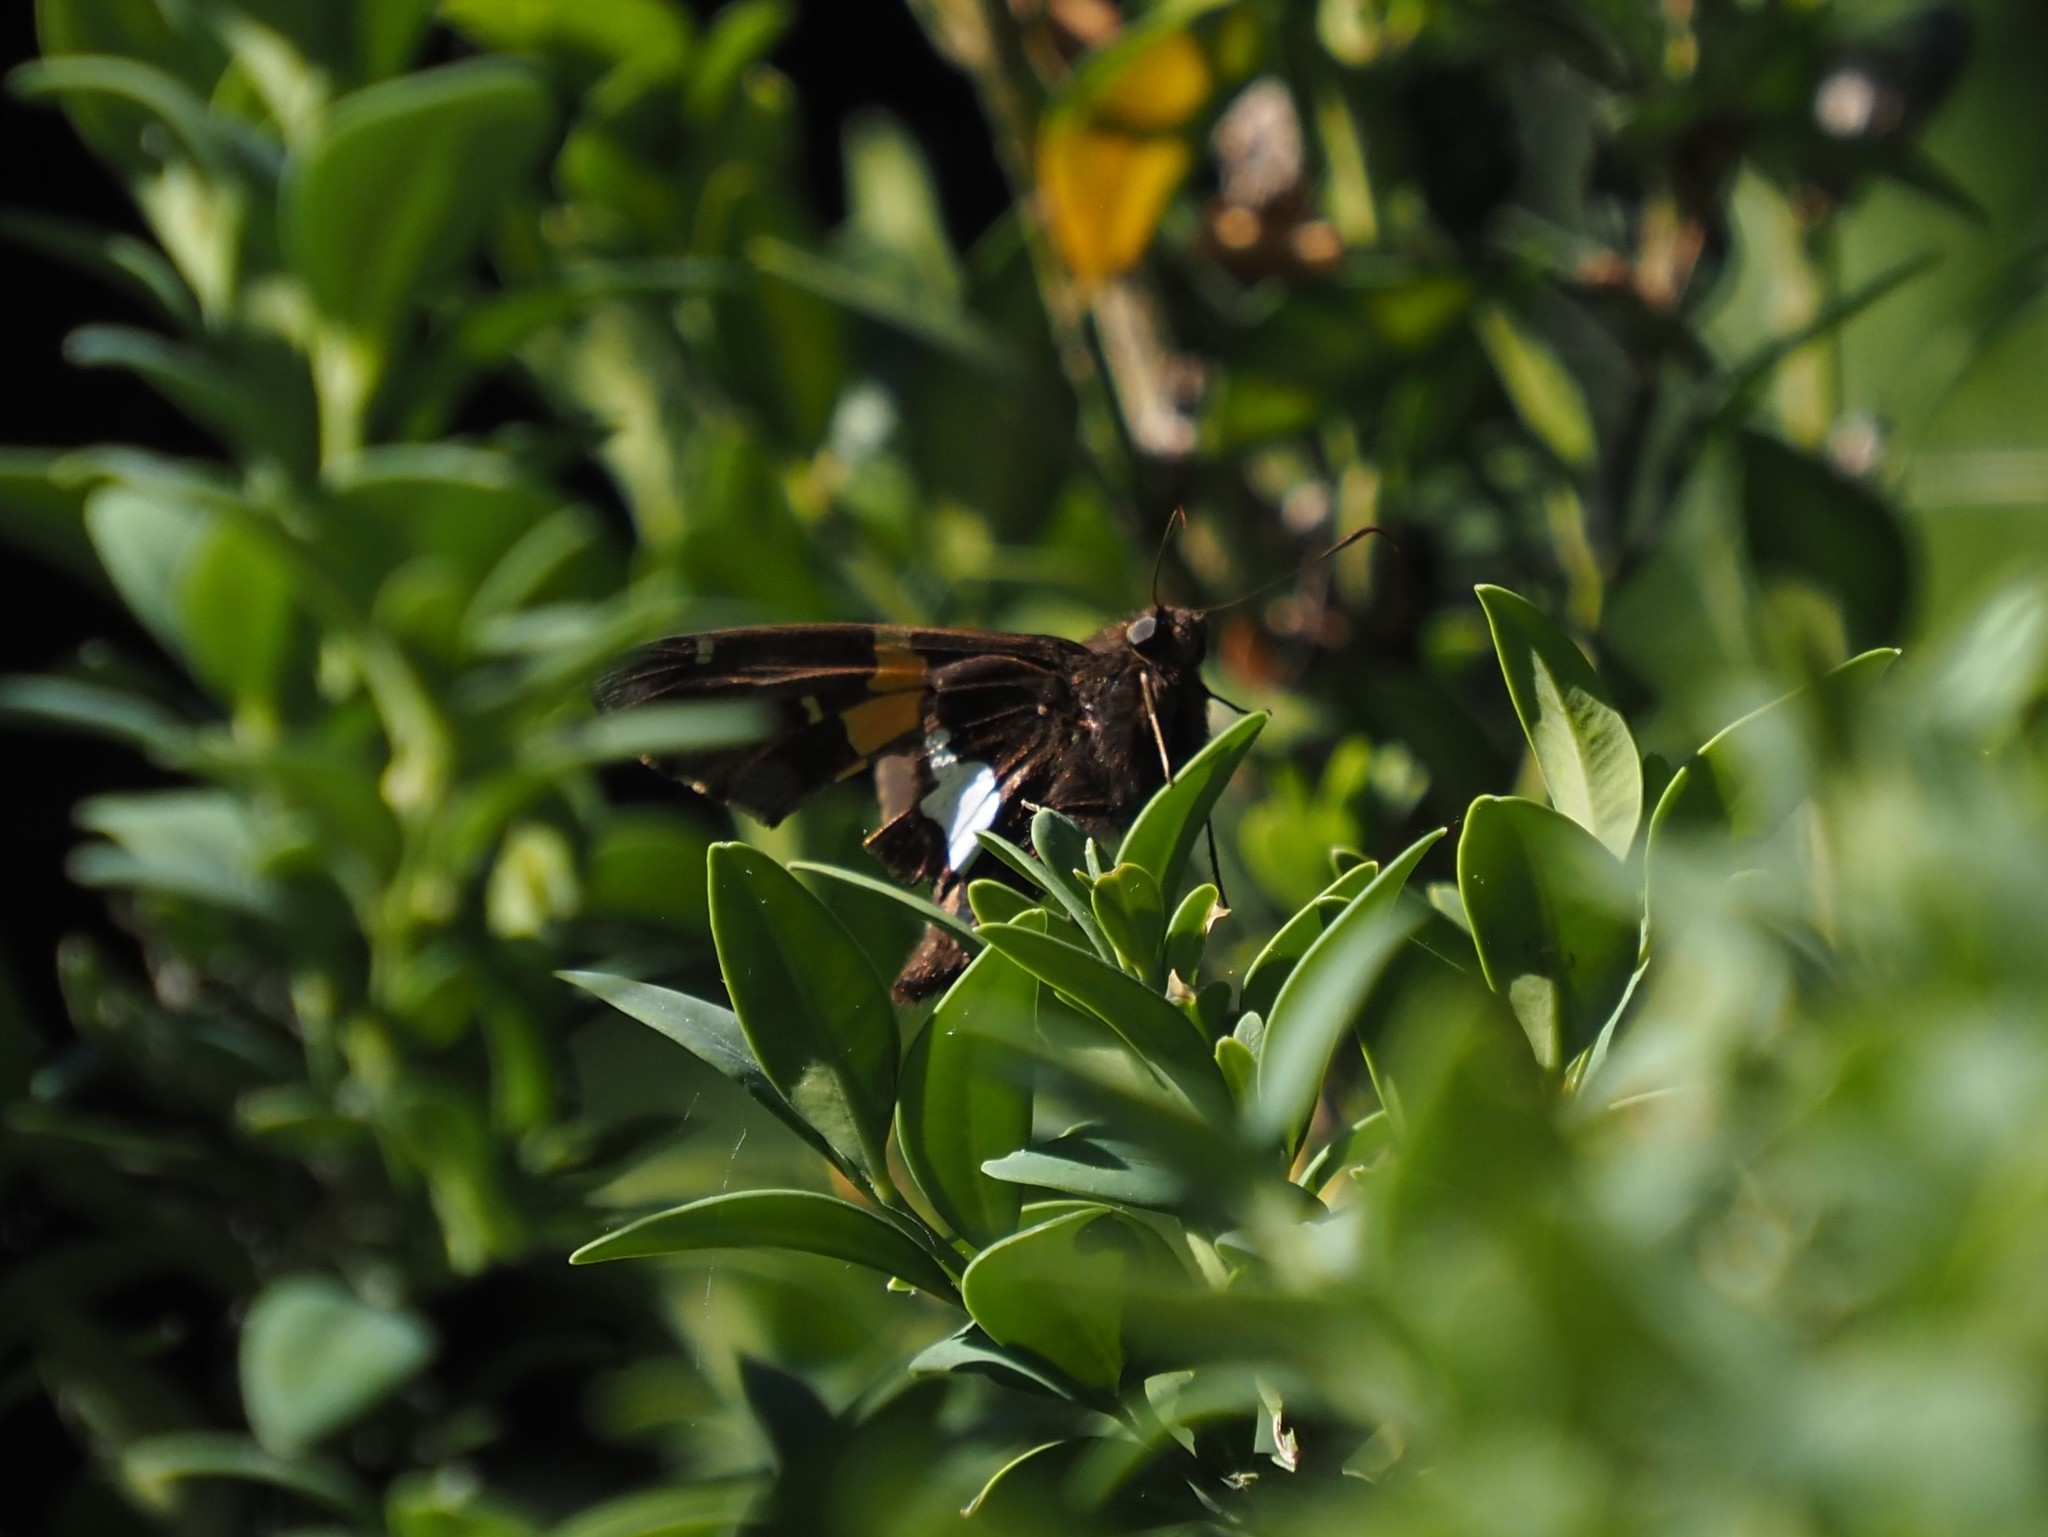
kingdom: Animalia
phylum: Arthropoda
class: Insecta
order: Lepidoptera
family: Hesperiidae
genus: Epargyreus
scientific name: Epargyreus clarus
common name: Silver-spotted skipper
